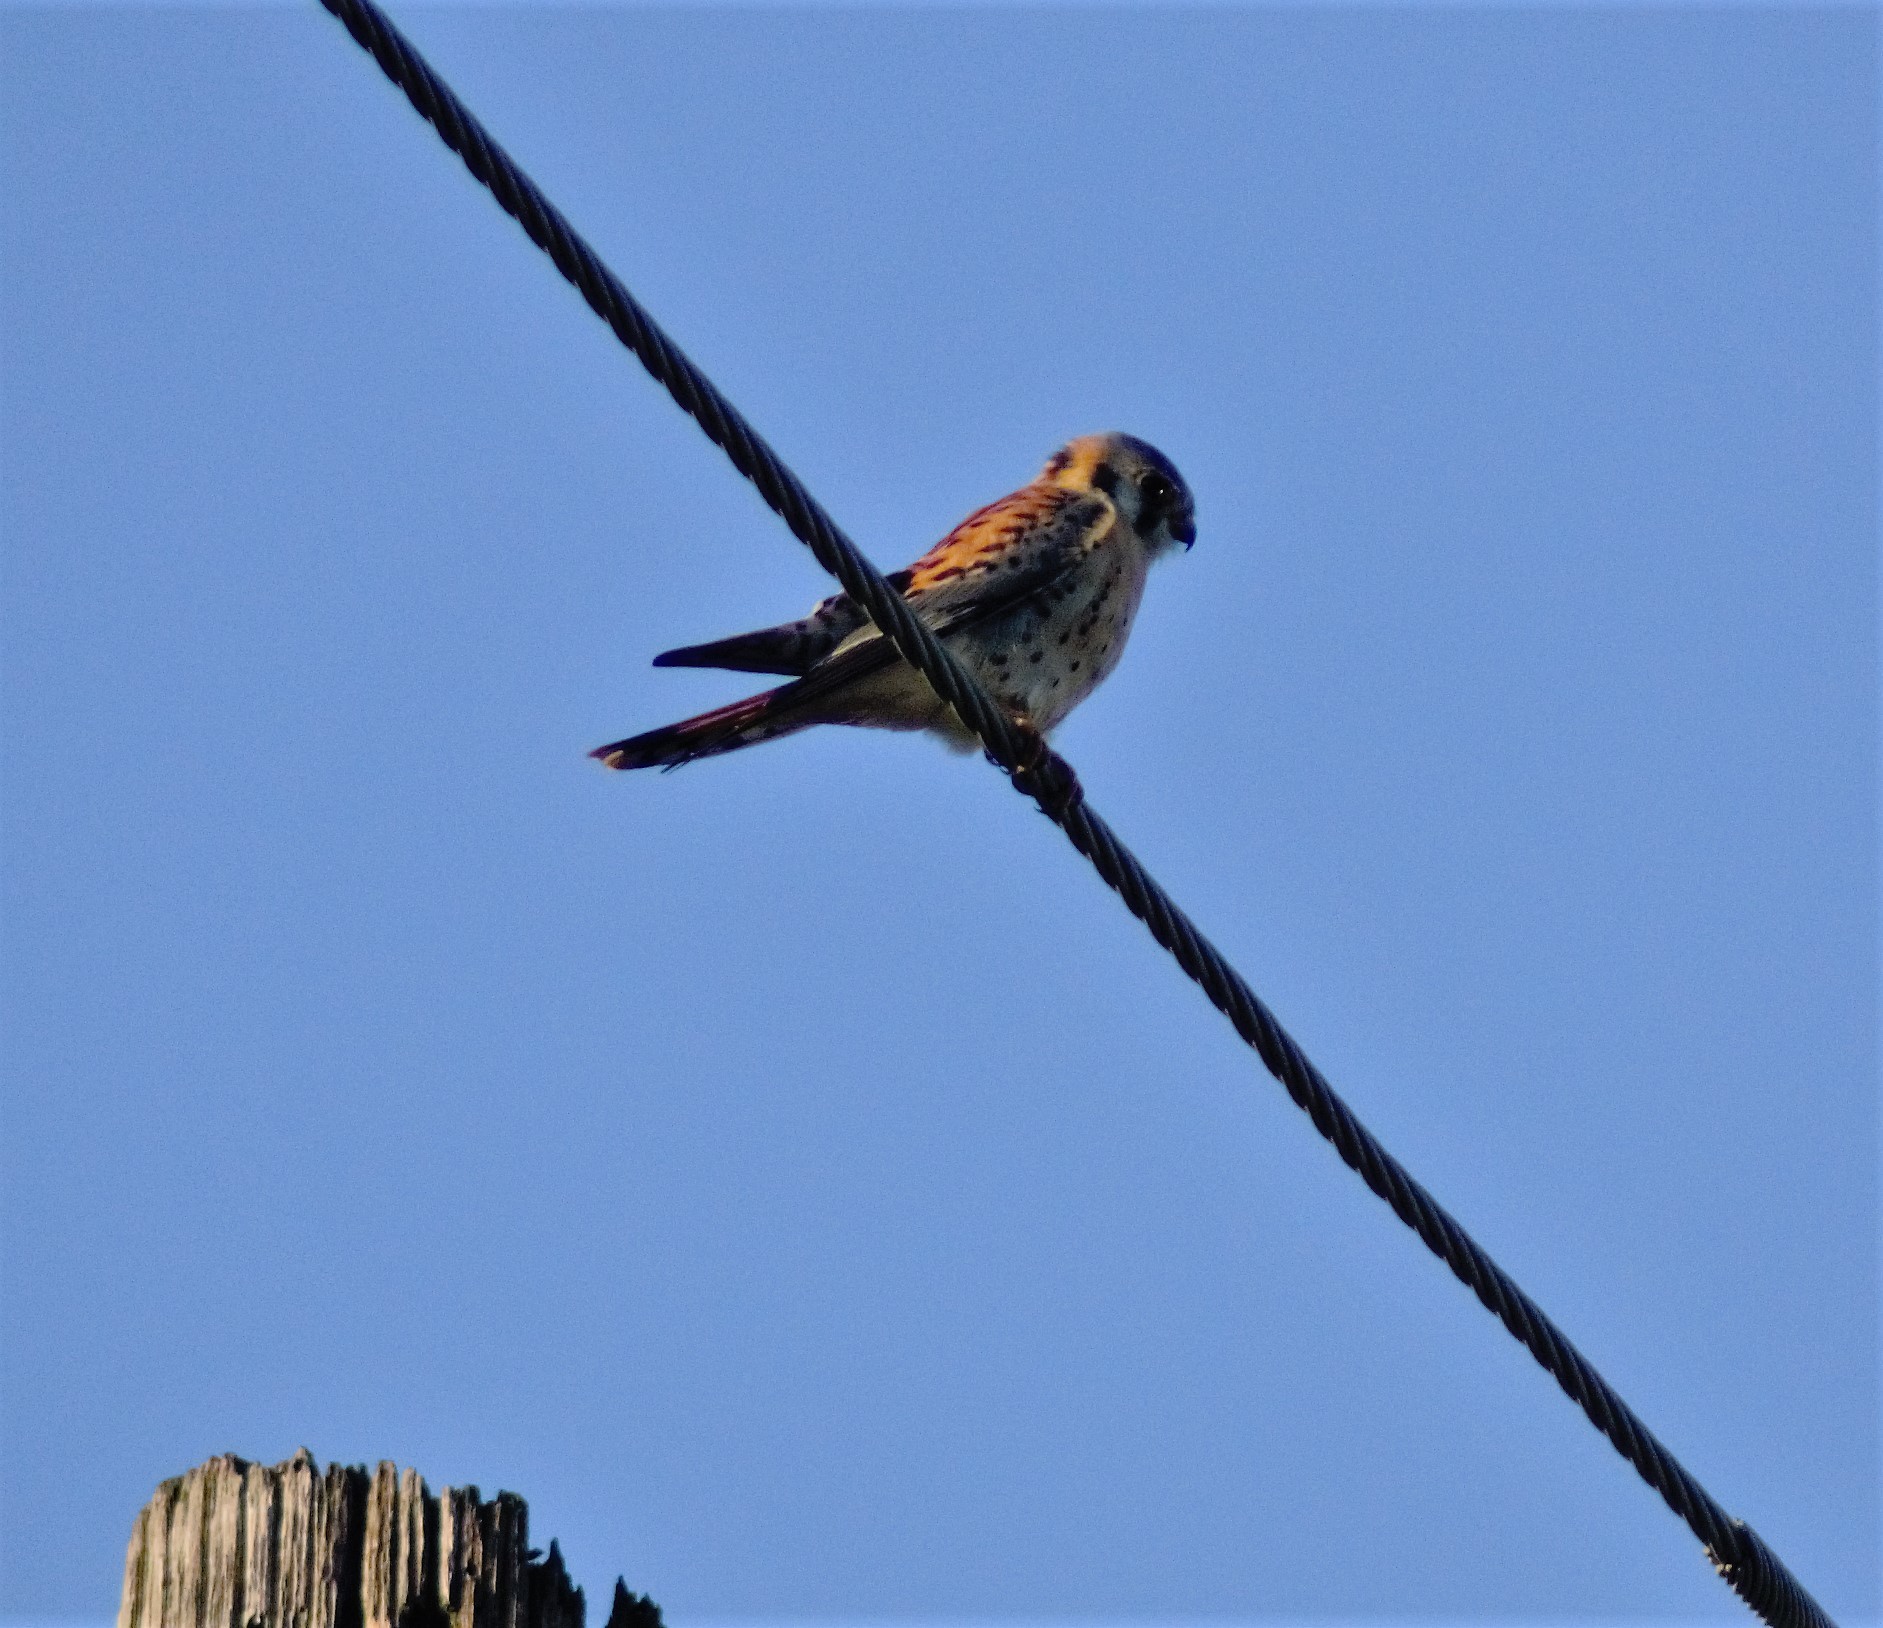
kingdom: Animalia
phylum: Chordata
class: Aves
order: Falconiformes
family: Falconidae
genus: Falco
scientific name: Falco sparverius
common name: American kestrel
